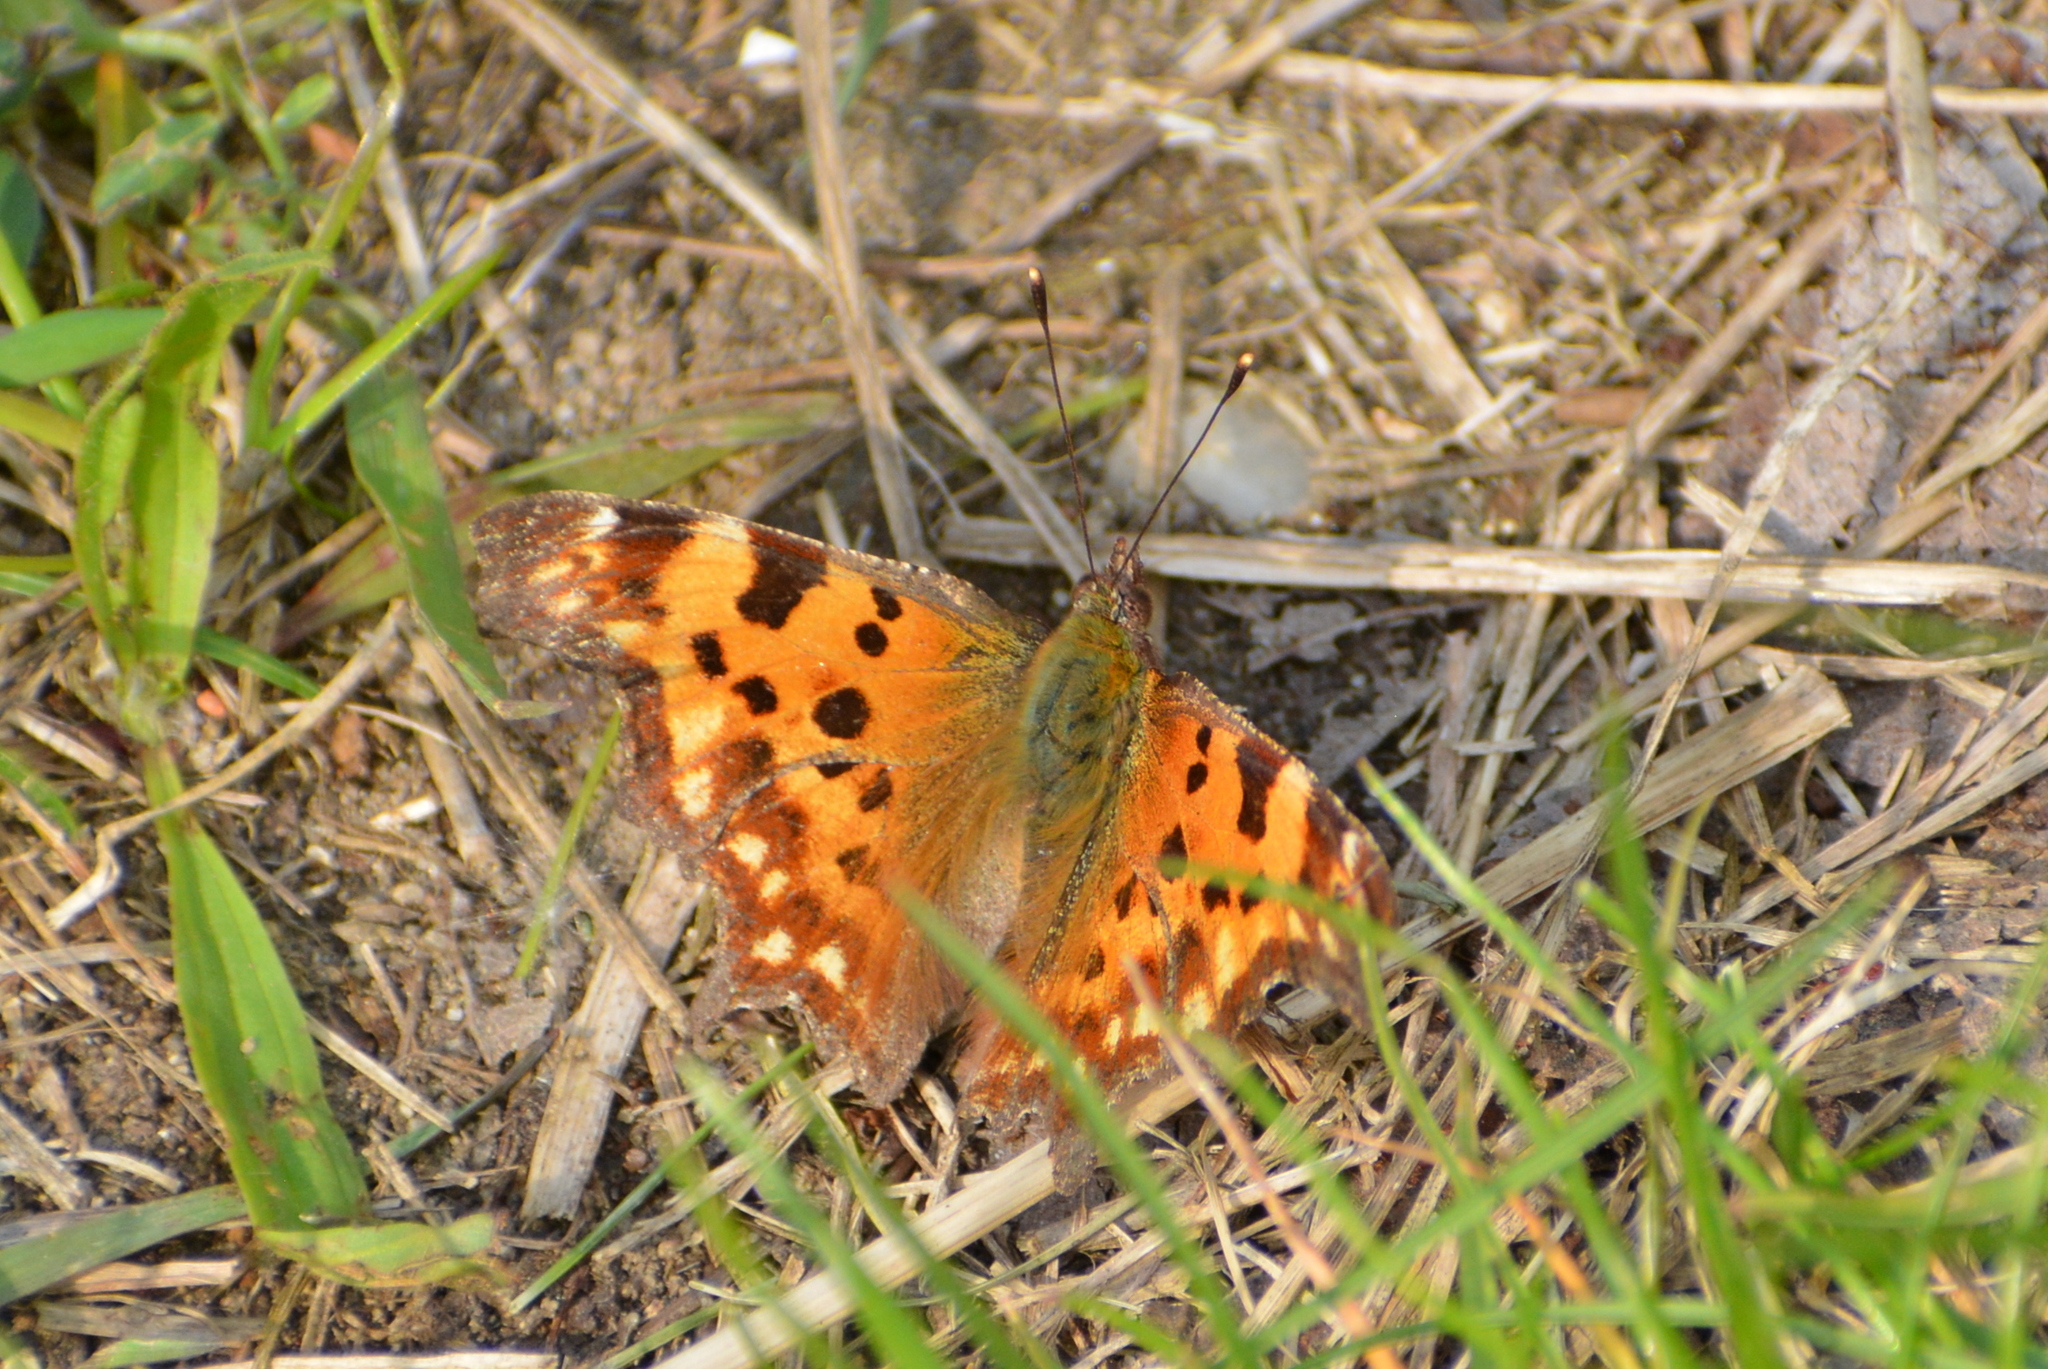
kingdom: Animalia
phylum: Arthropoda
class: Insecta
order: Lepidoptera
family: Nymphalidae
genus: Polygonia
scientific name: Polygonia c-album
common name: Comma
